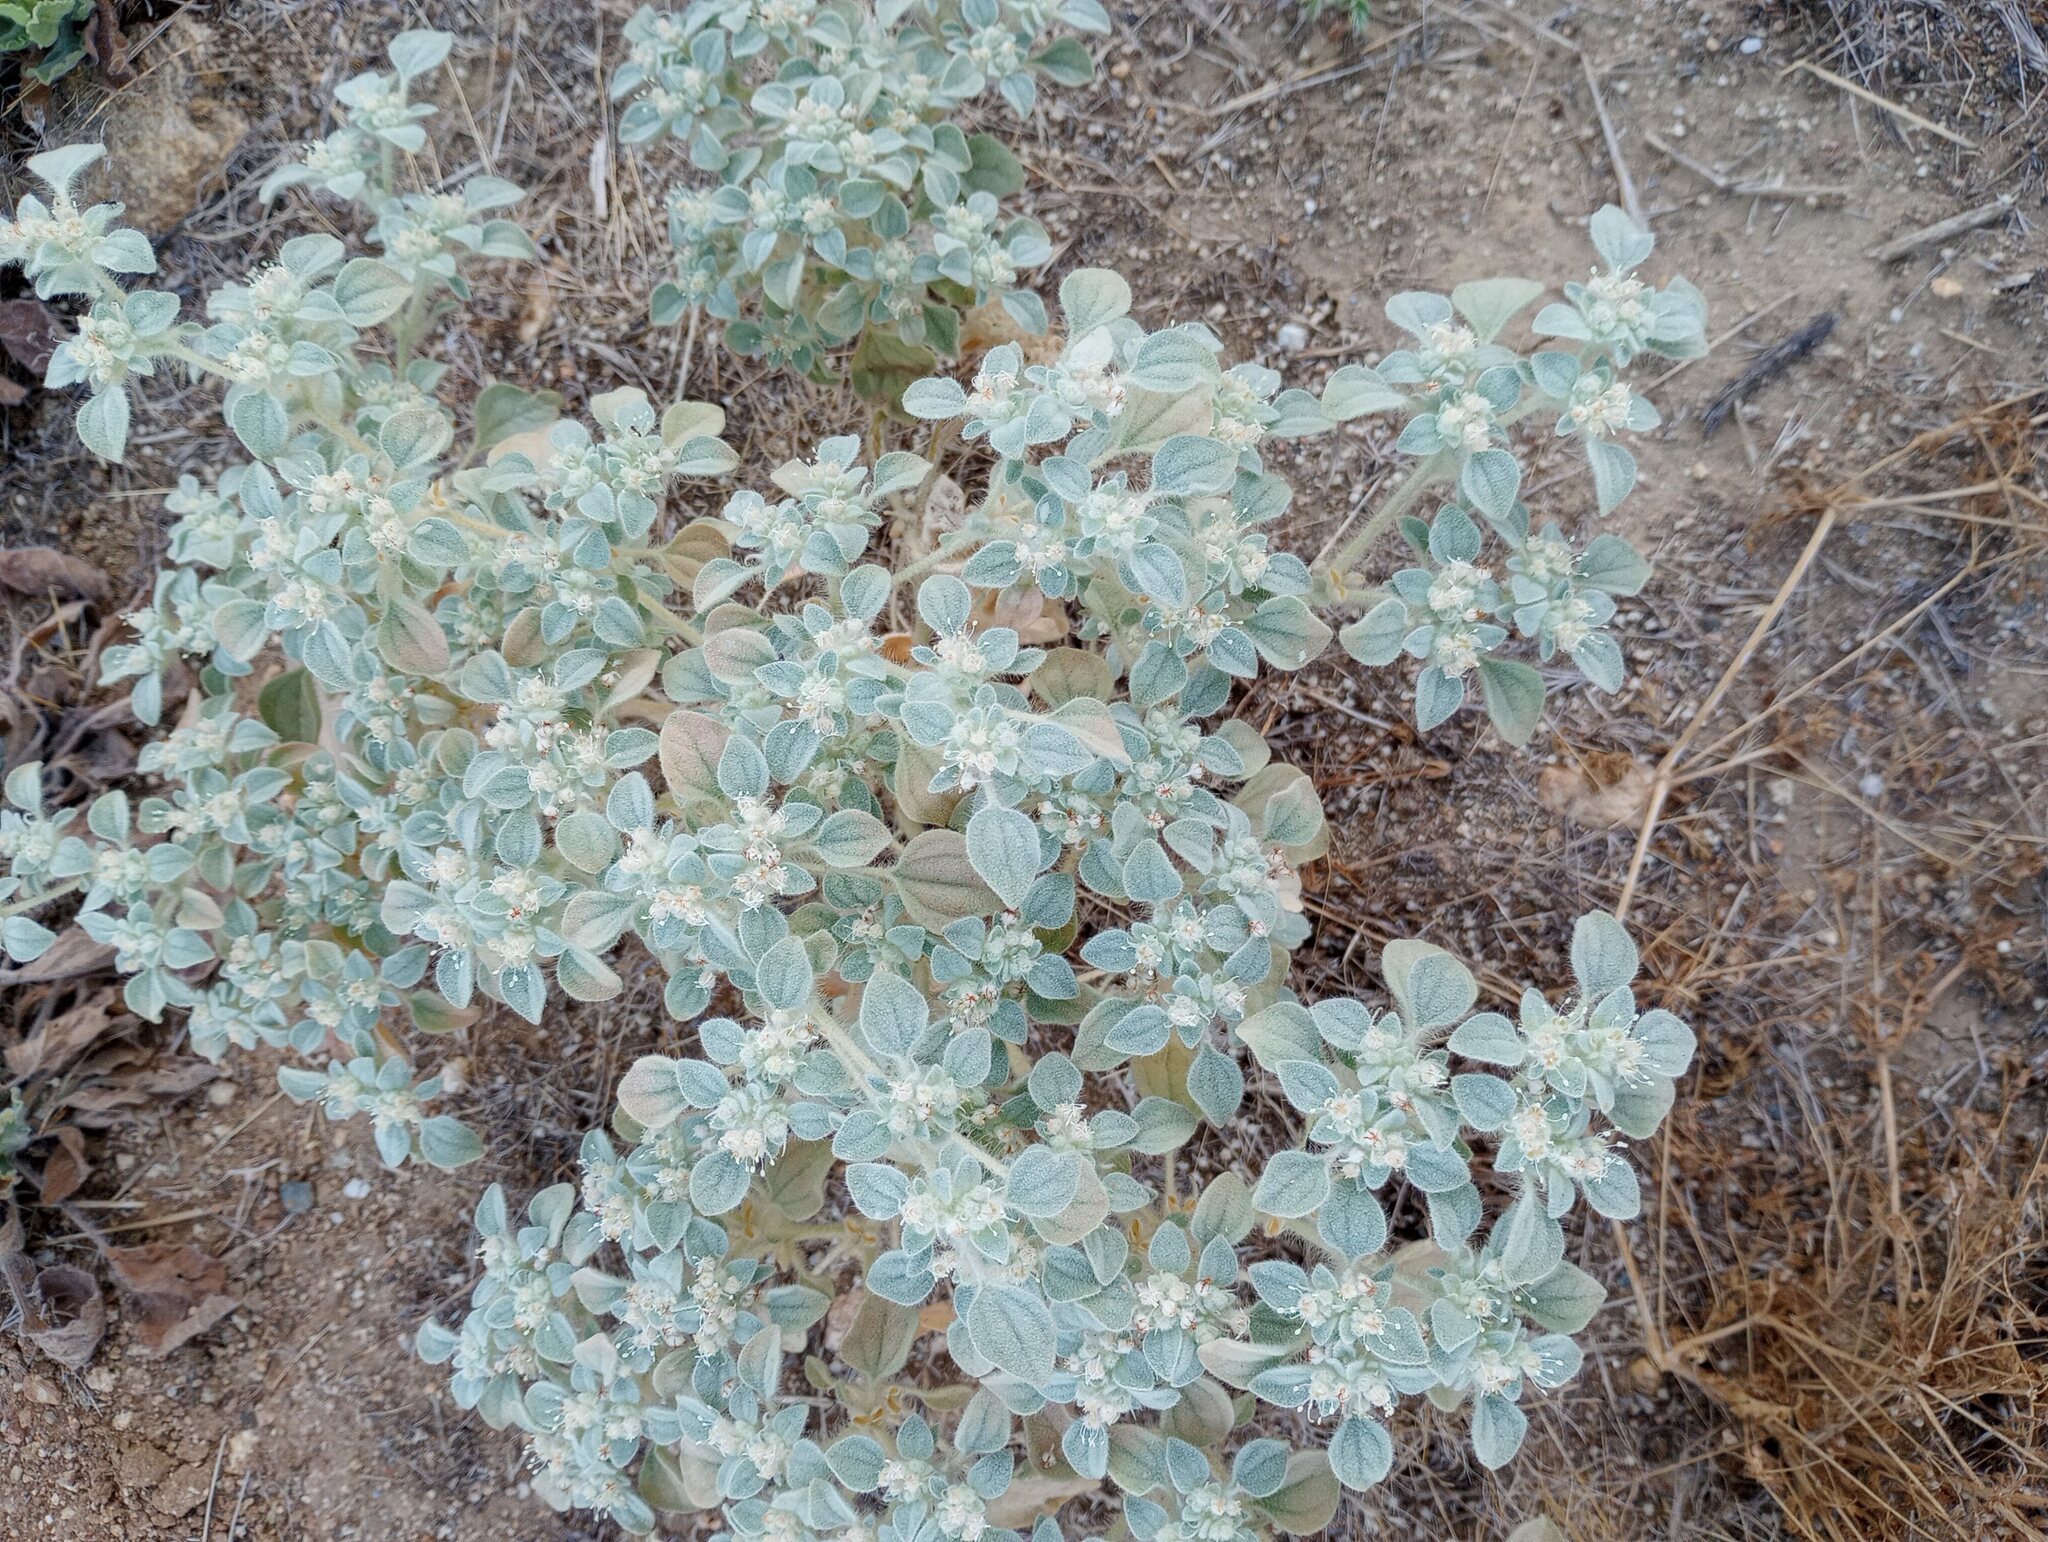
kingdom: Plantae
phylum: Tracheophyta
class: Magnoliopsida
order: Malpighiales
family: Euphorbiaceae
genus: Croton
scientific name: Croton setiger
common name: Dove weed
